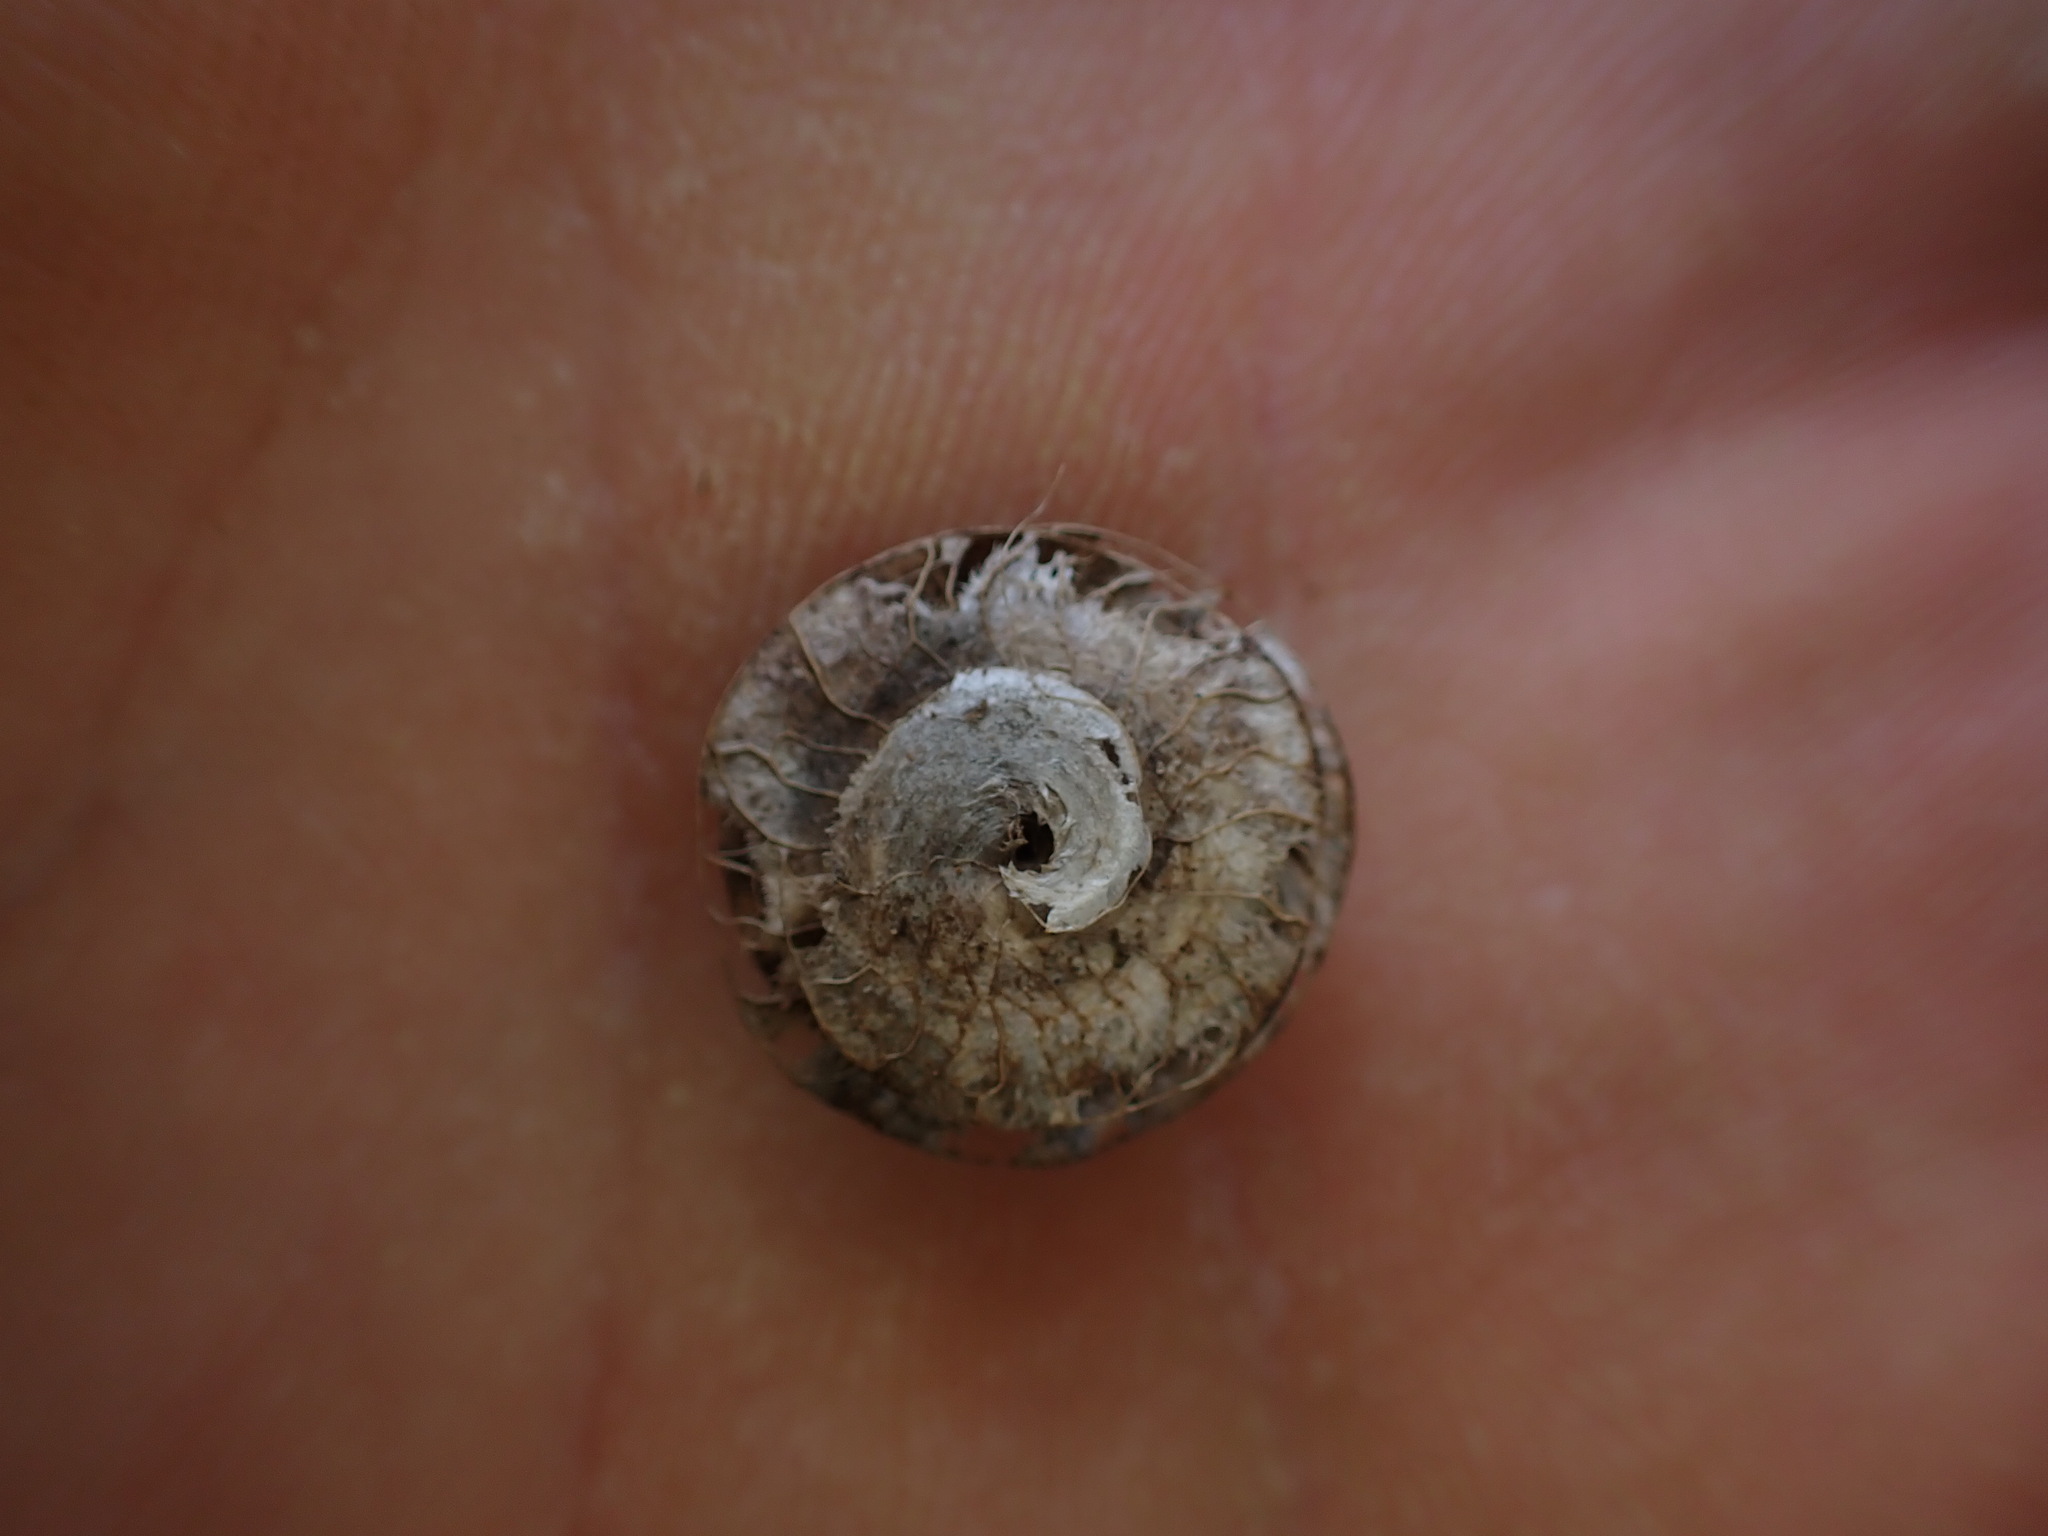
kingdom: Plantae
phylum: Tracheophyta
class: Magnoliopsida
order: Fabales
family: Fabaceae
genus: Medicago
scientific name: Medicago orbicularis
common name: Button medick
